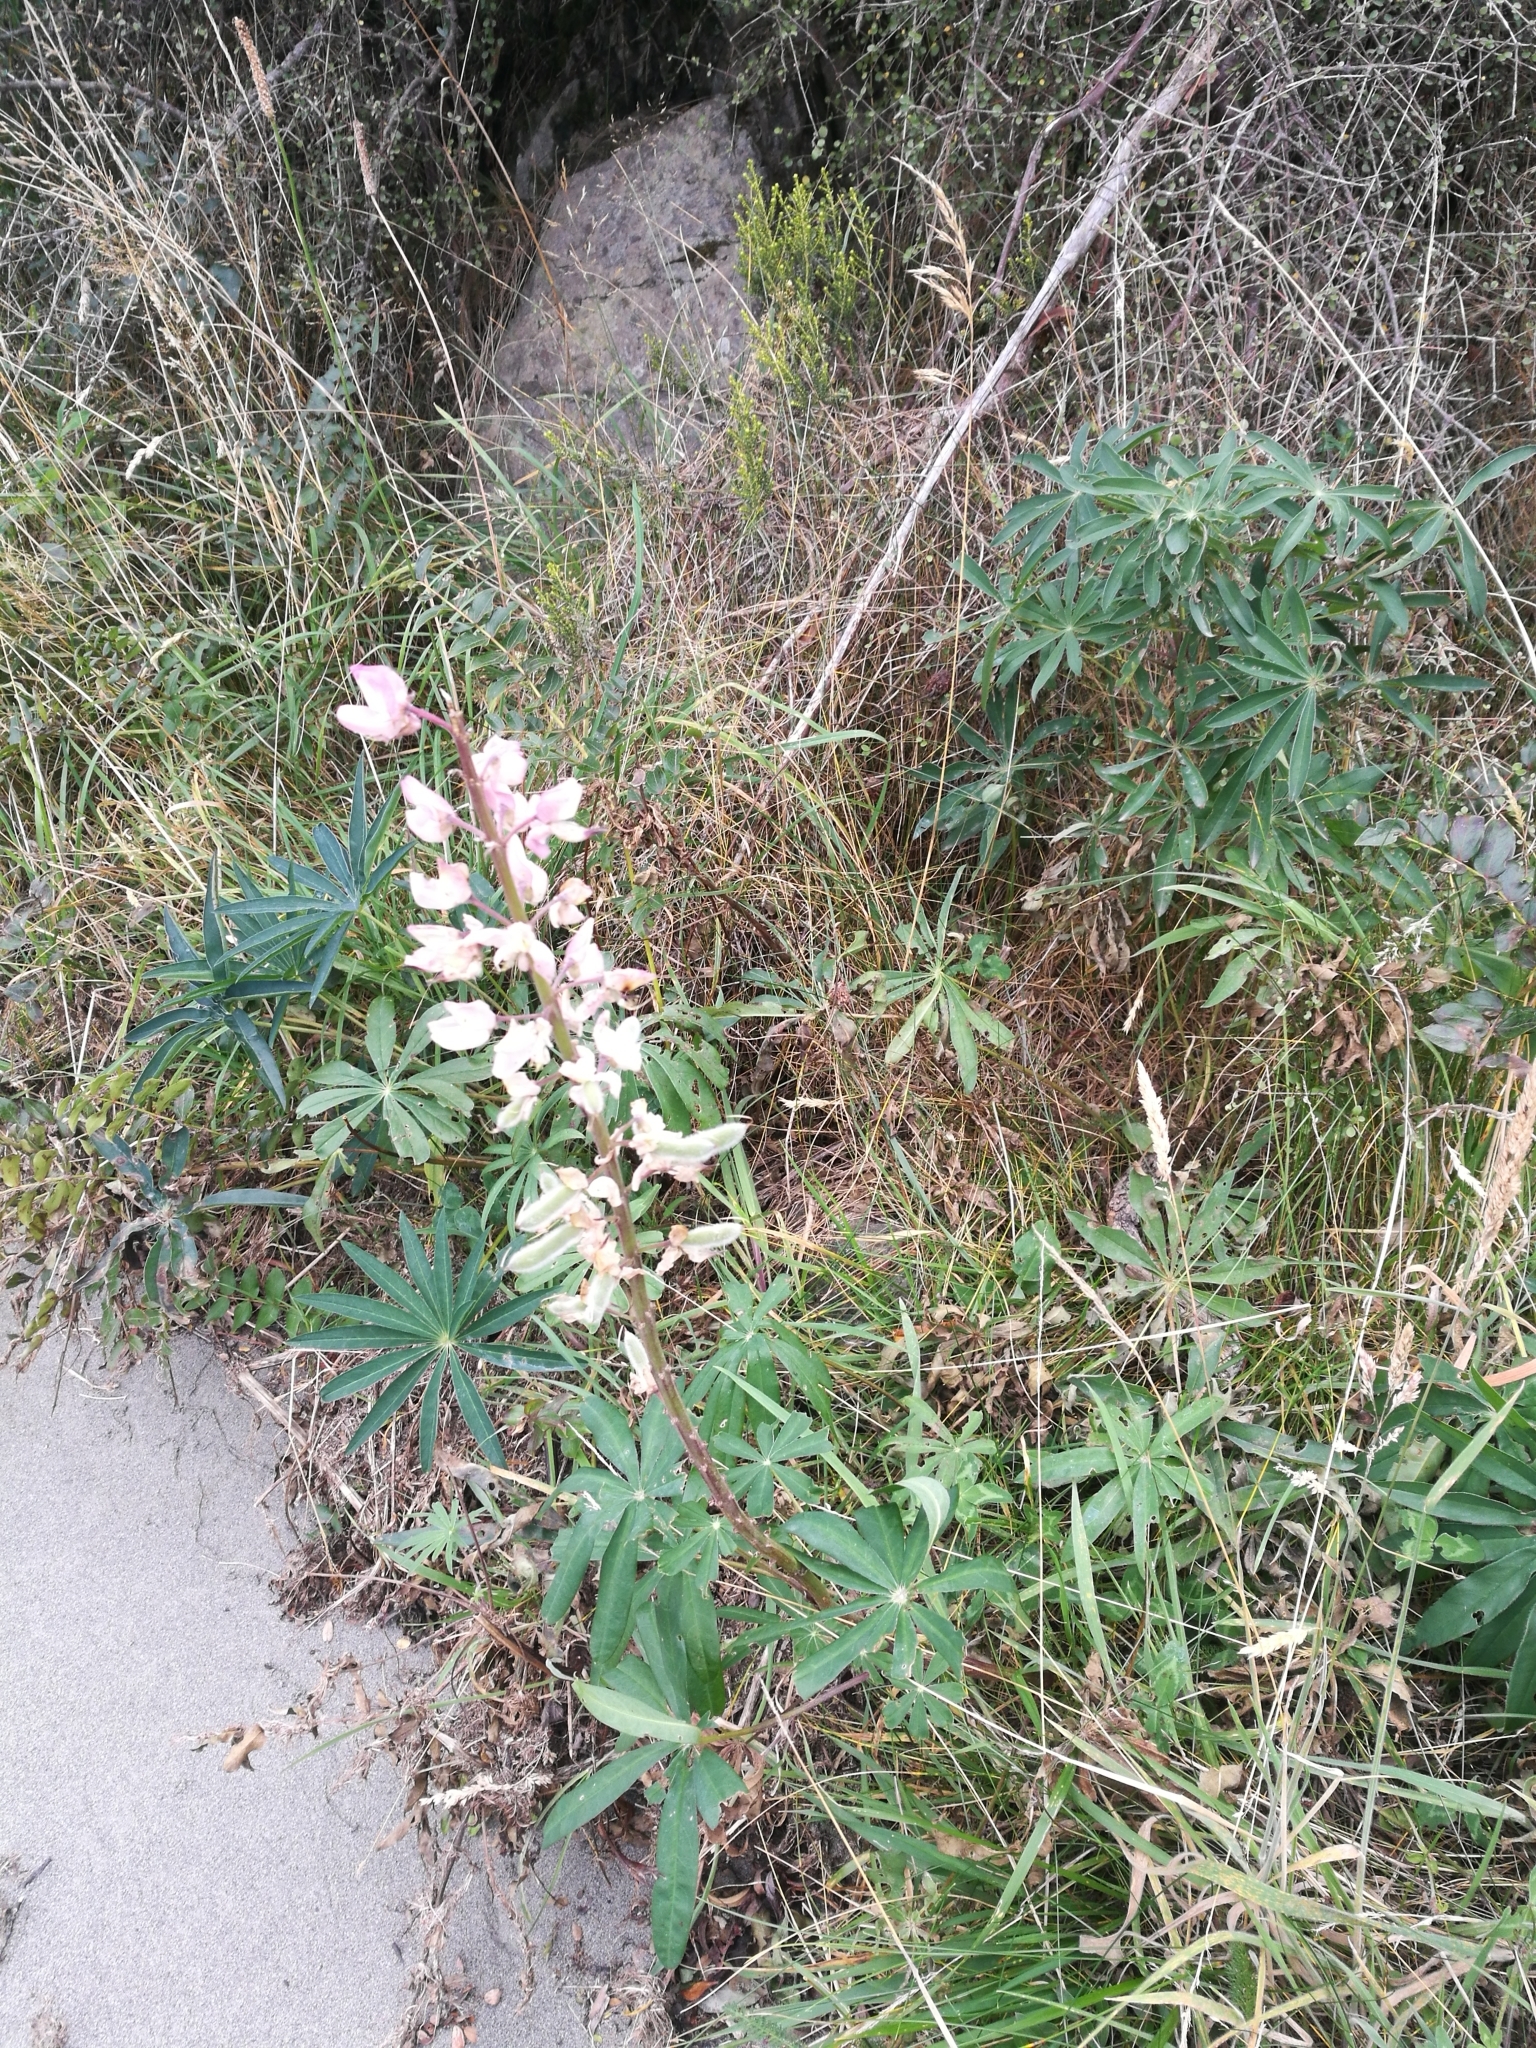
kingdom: Plantae
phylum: Tracheophyta
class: Magnoliopsida
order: Fabales
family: Fabaceae
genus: Lupinus
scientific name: Lupinus arboreus
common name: Yellow bush lupine
